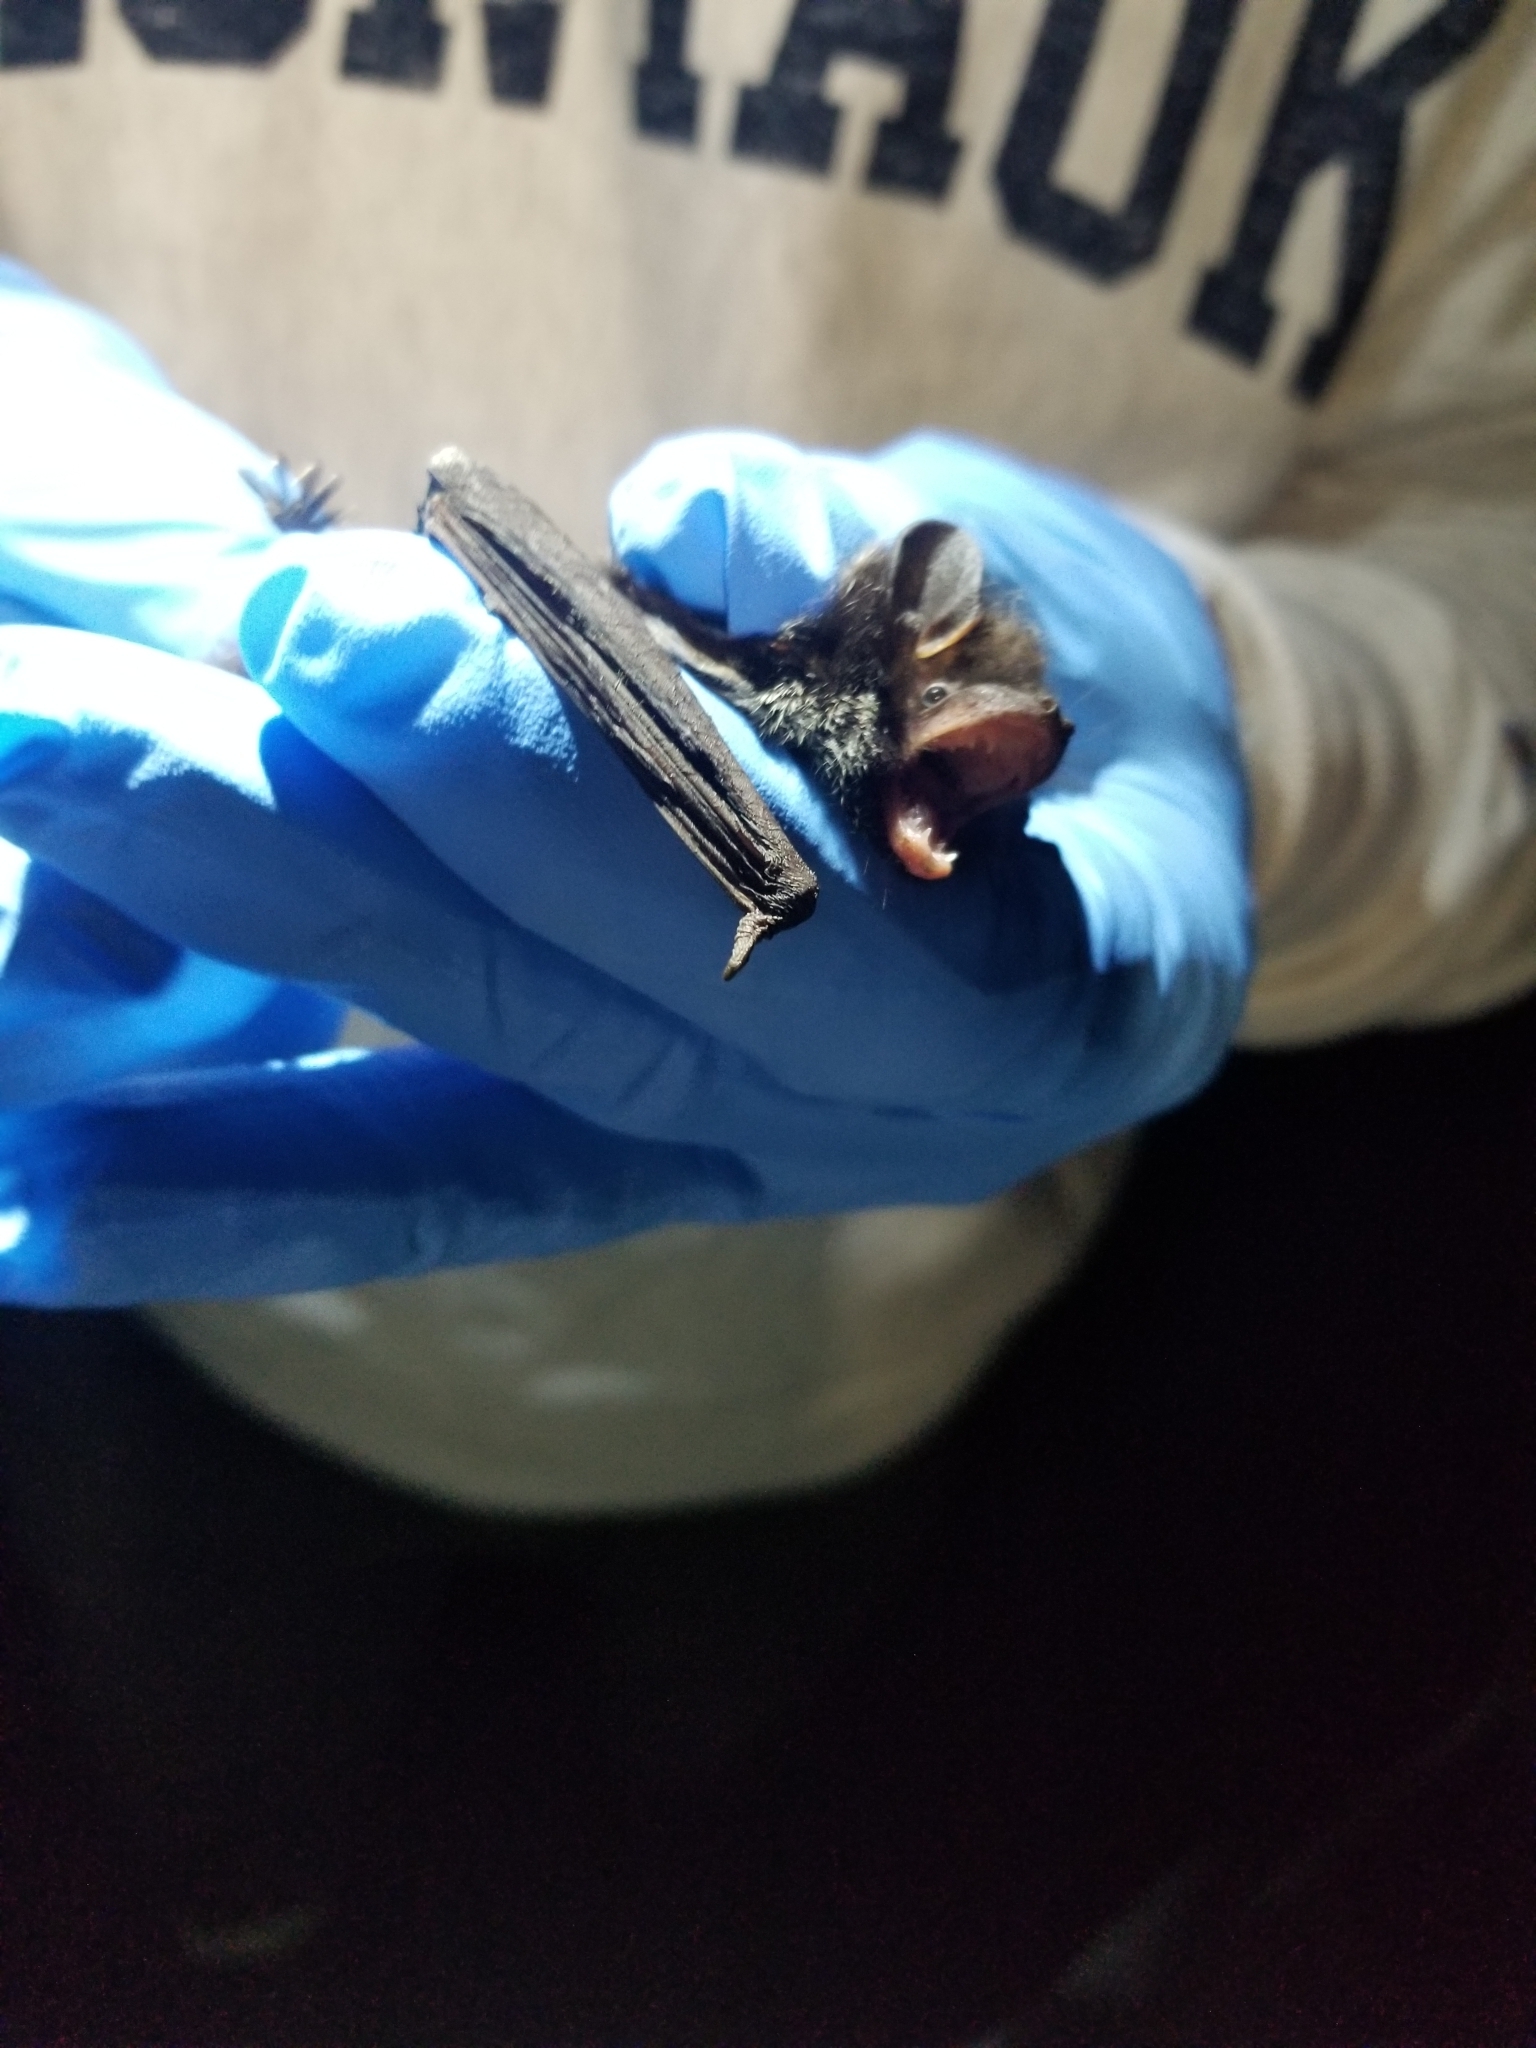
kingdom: Animalia
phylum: Chordata
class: Mammalia
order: Chiroptera
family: Vespertilionidae
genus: Lasionycteris
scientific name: Lasionycteris noctivagans
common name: Silver-haired bat
